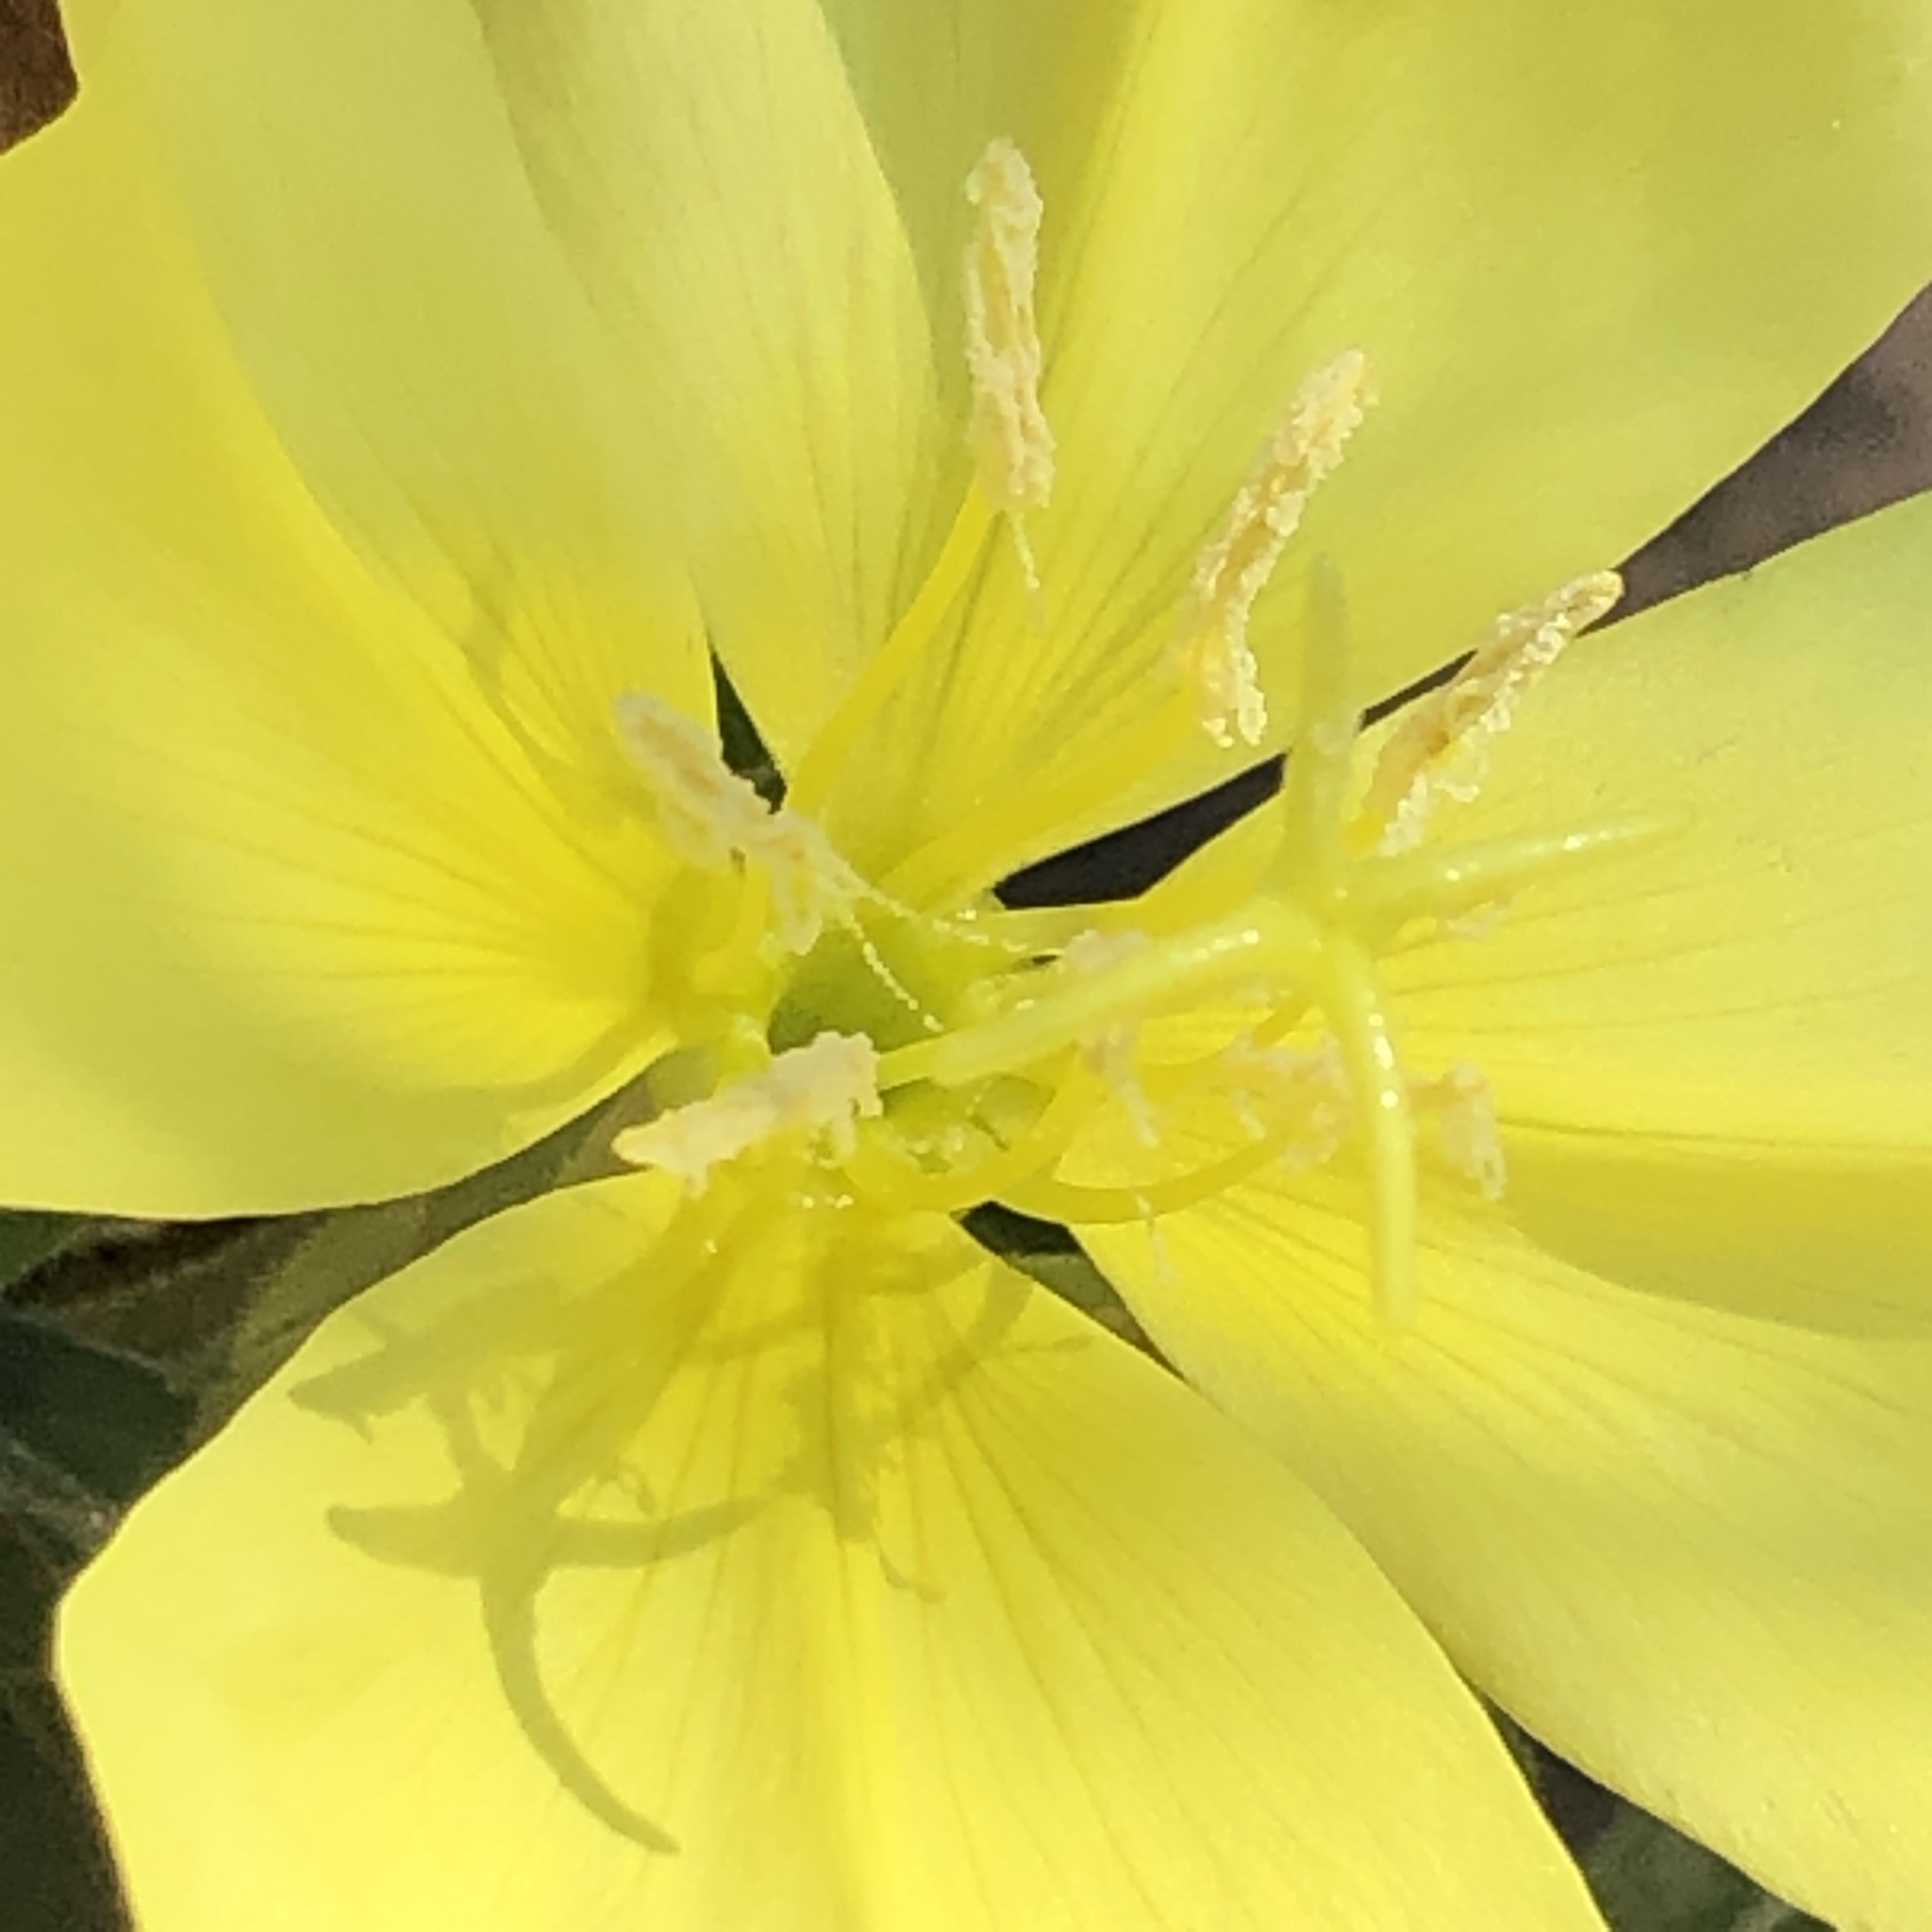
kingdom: Plantae
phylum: Tracheophyta
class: Magnoliopsida
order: Myrtales
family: Onagraceae
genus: Oenothera
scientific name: Oenothera elata
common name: Hooker's evening-primrose
